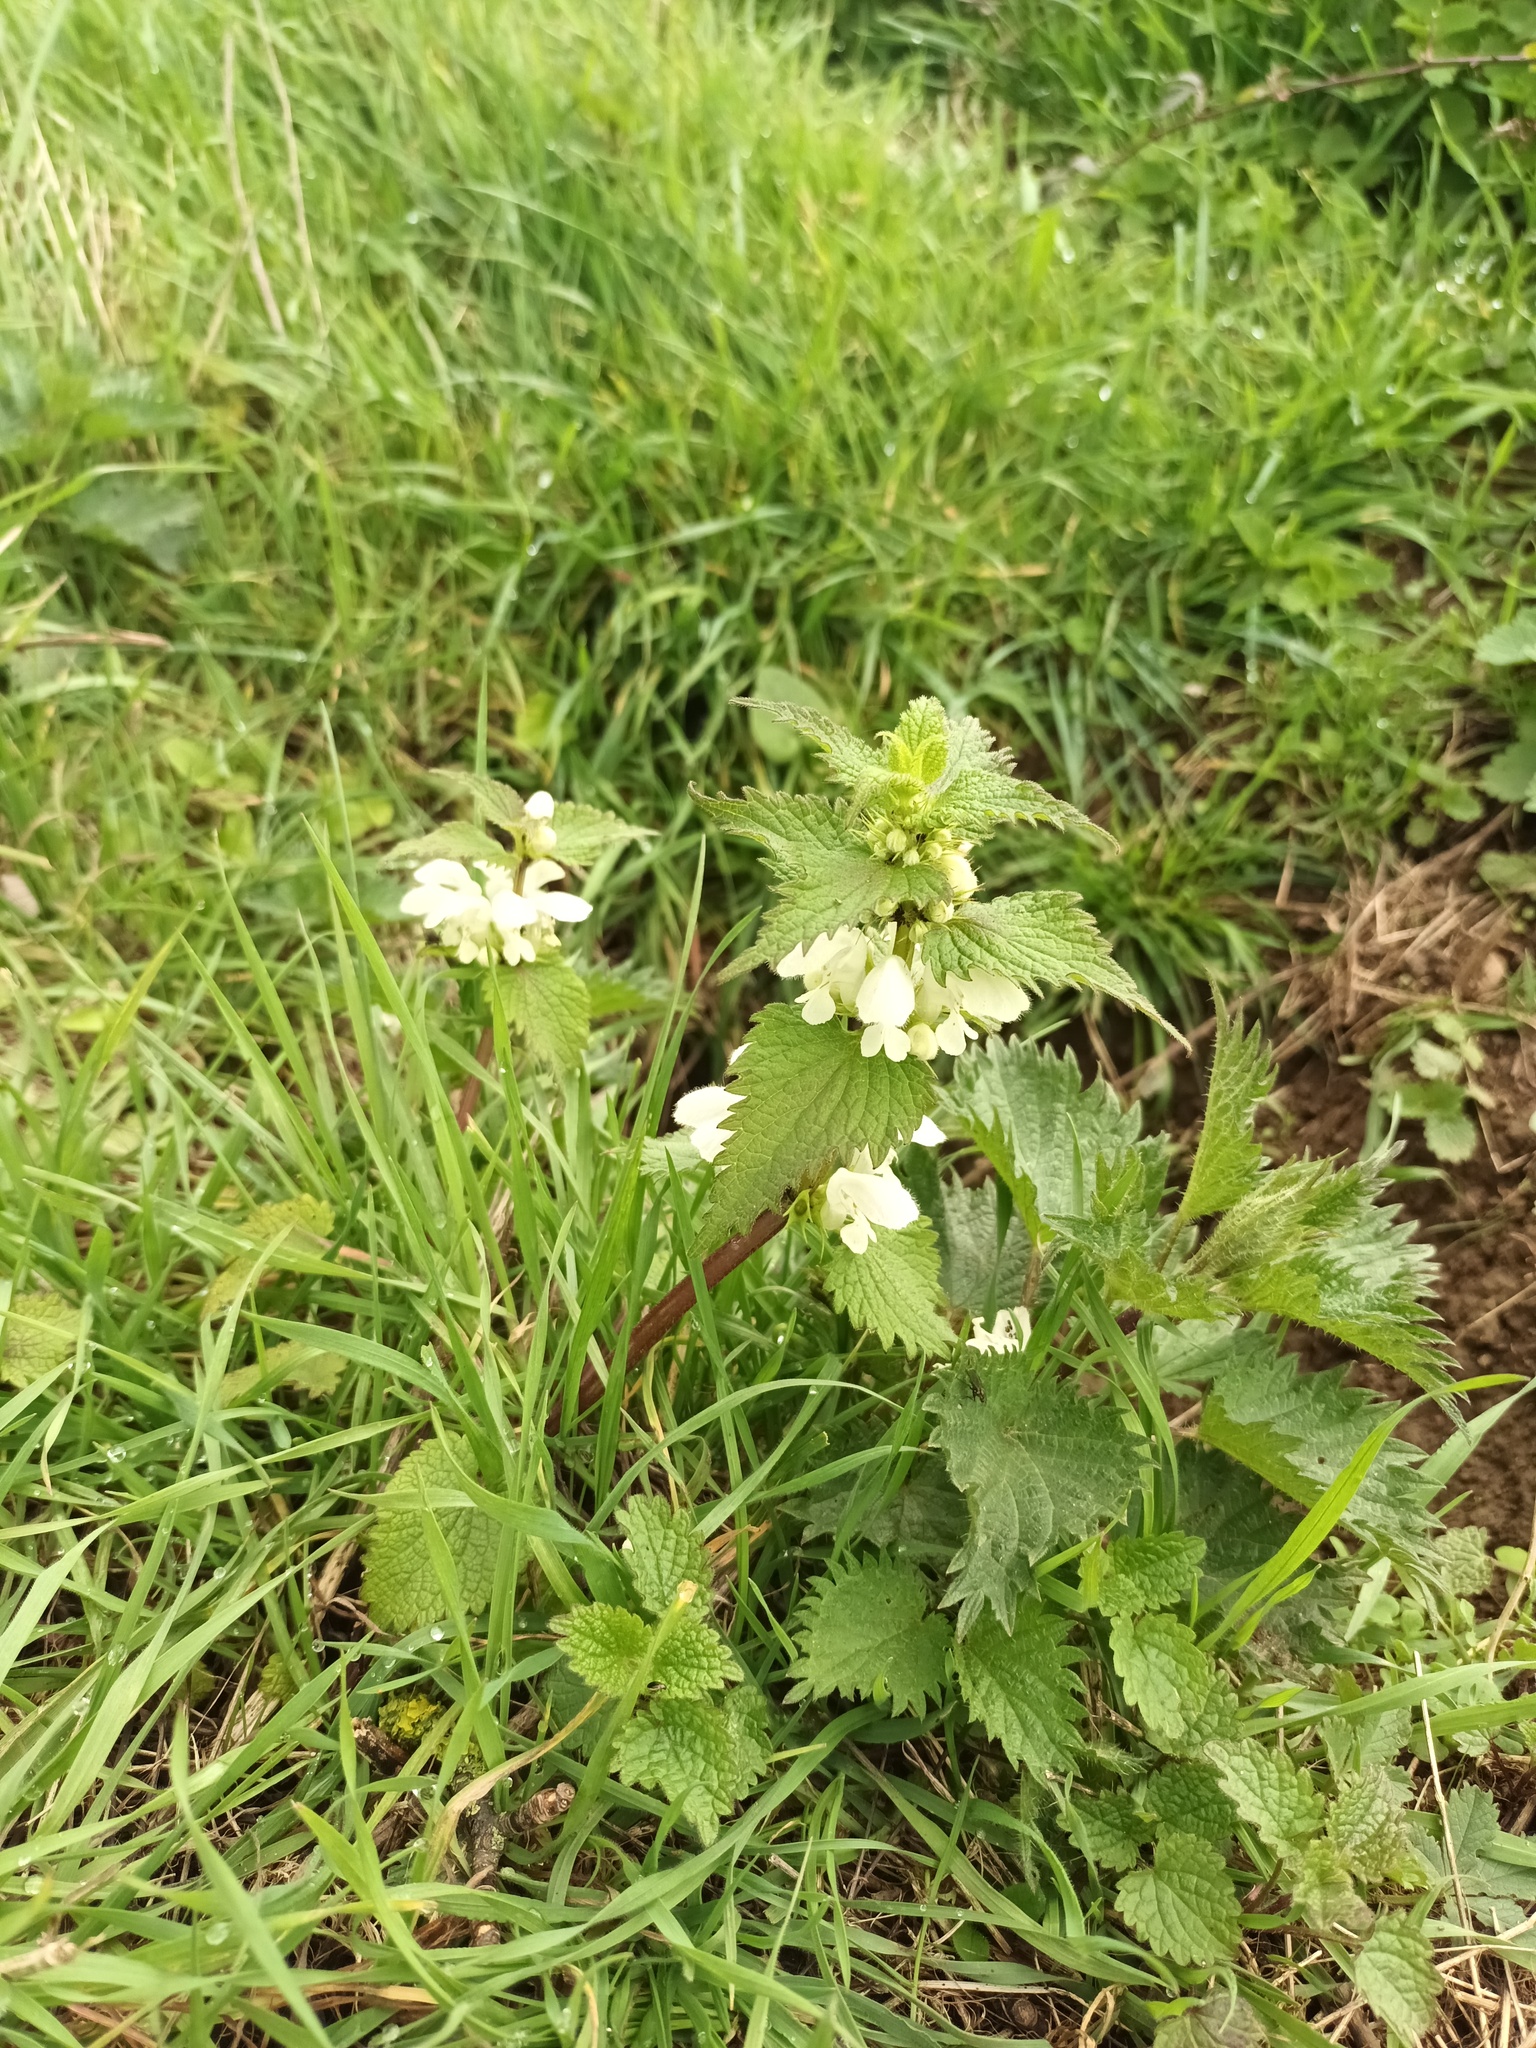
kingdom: Plantae
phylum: Tracheophyta
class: Magnoliopsida
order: Lamiales
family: Lamiaceae
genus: Lamium
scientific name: Lamium album
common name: White dead-nettle
